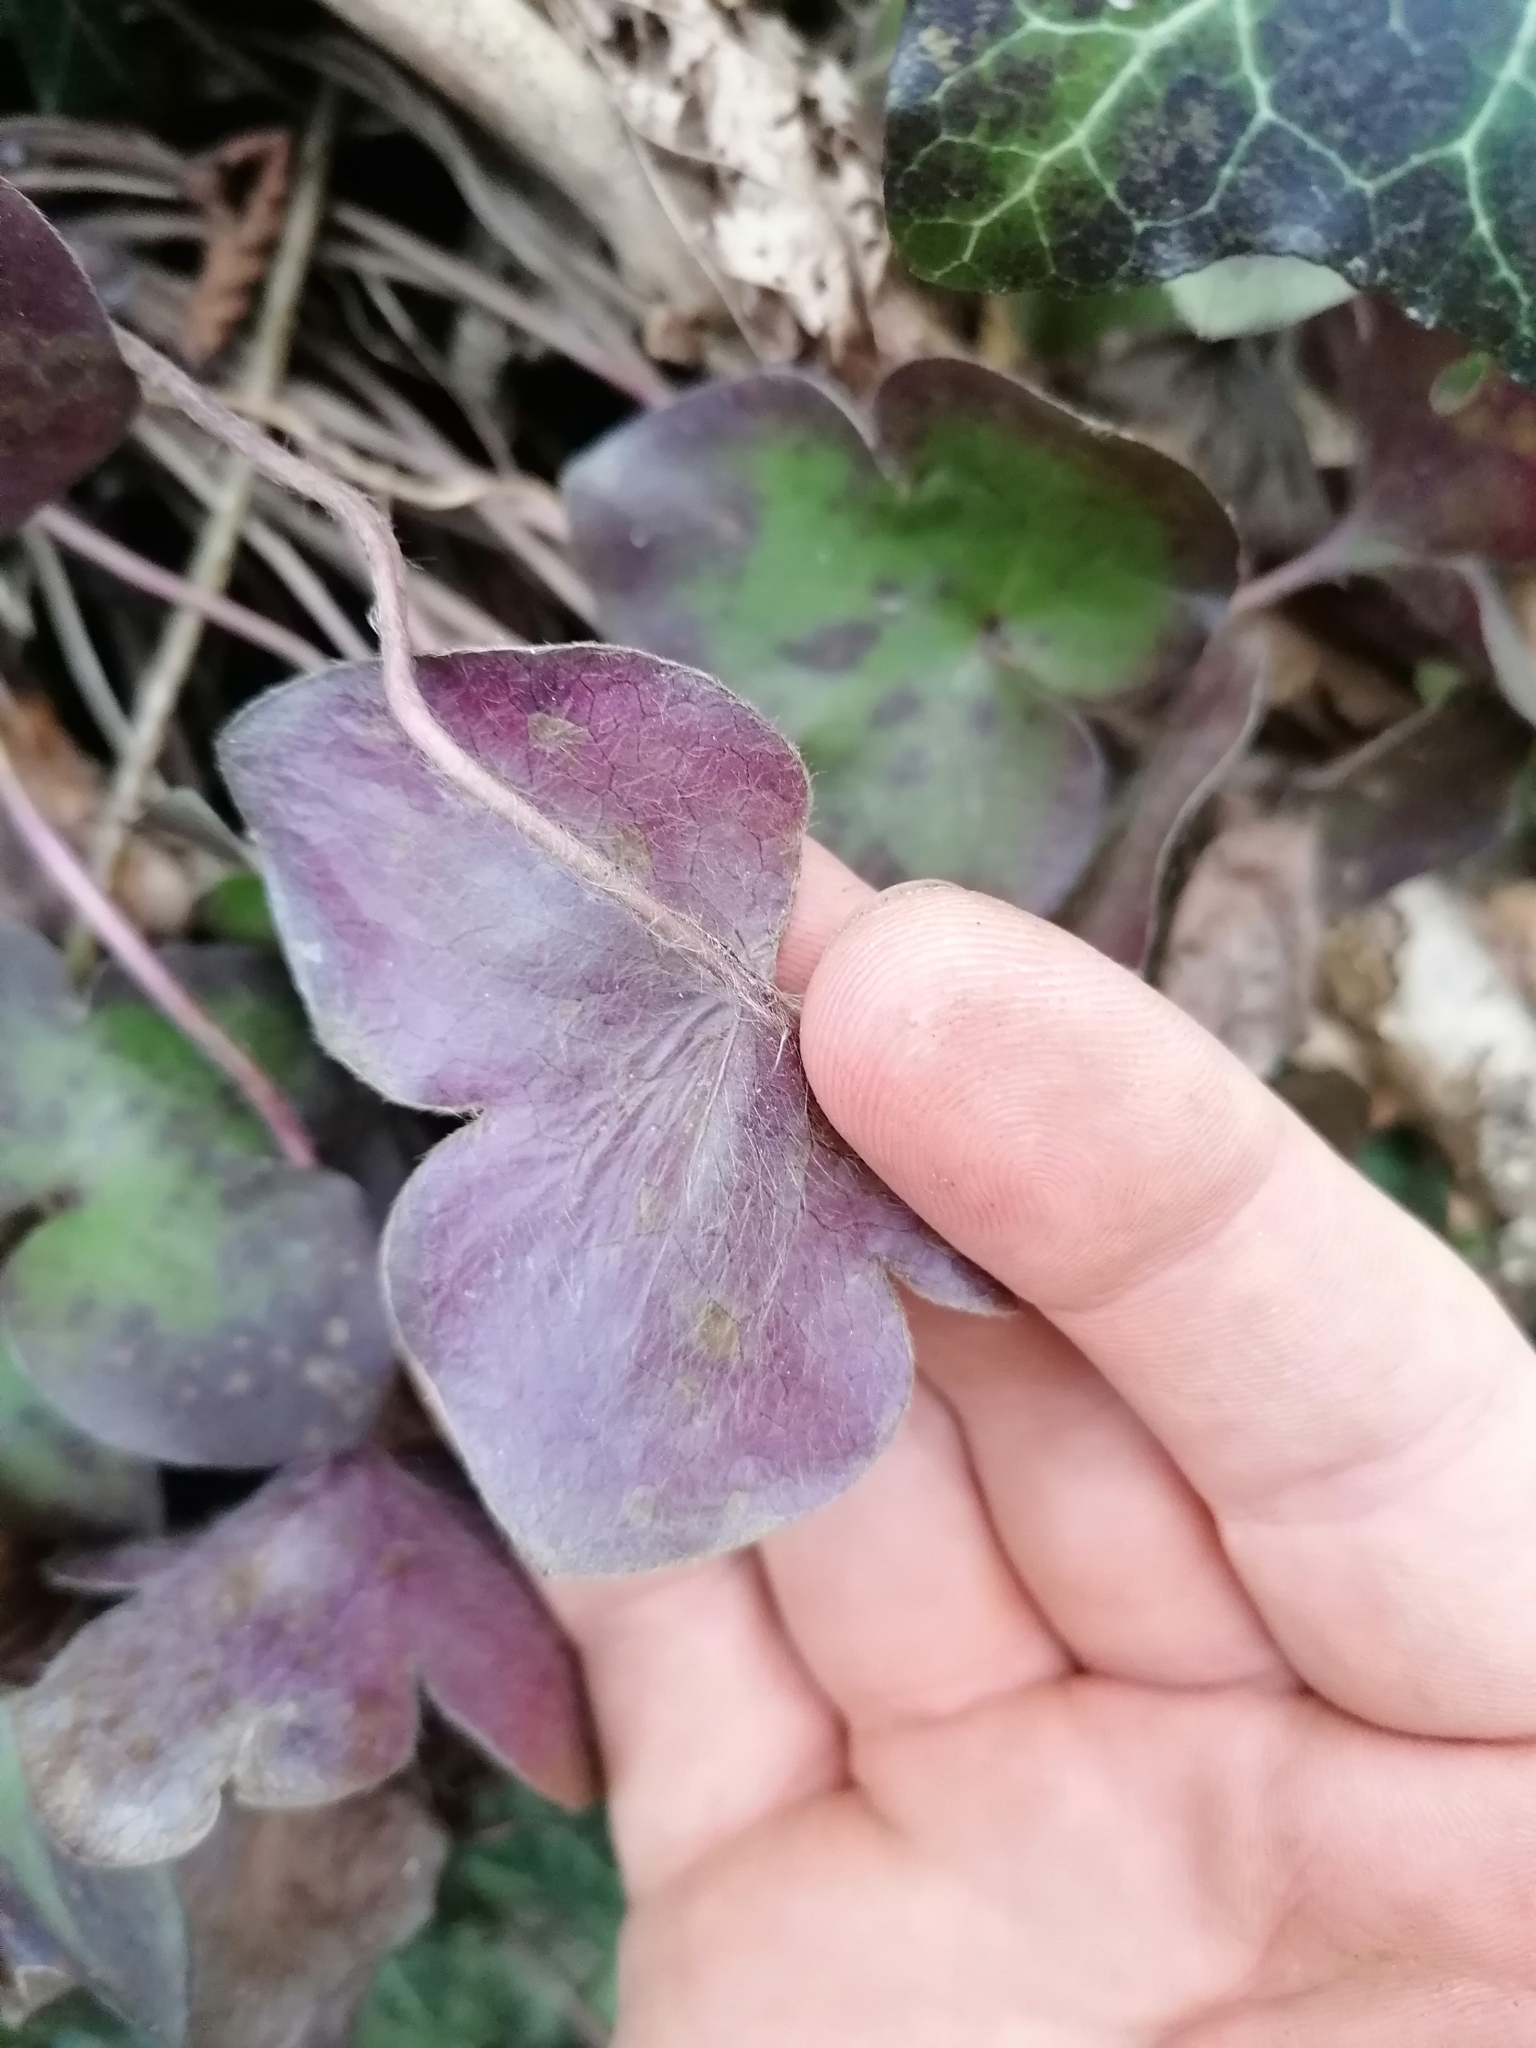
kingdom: Plantae
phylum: Tracheophyta
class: Magnoliopsida
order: Ranunculales
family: Ranunculaceae
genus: Hepatica
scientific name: Hepatica nobilis
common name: Liverleaf
